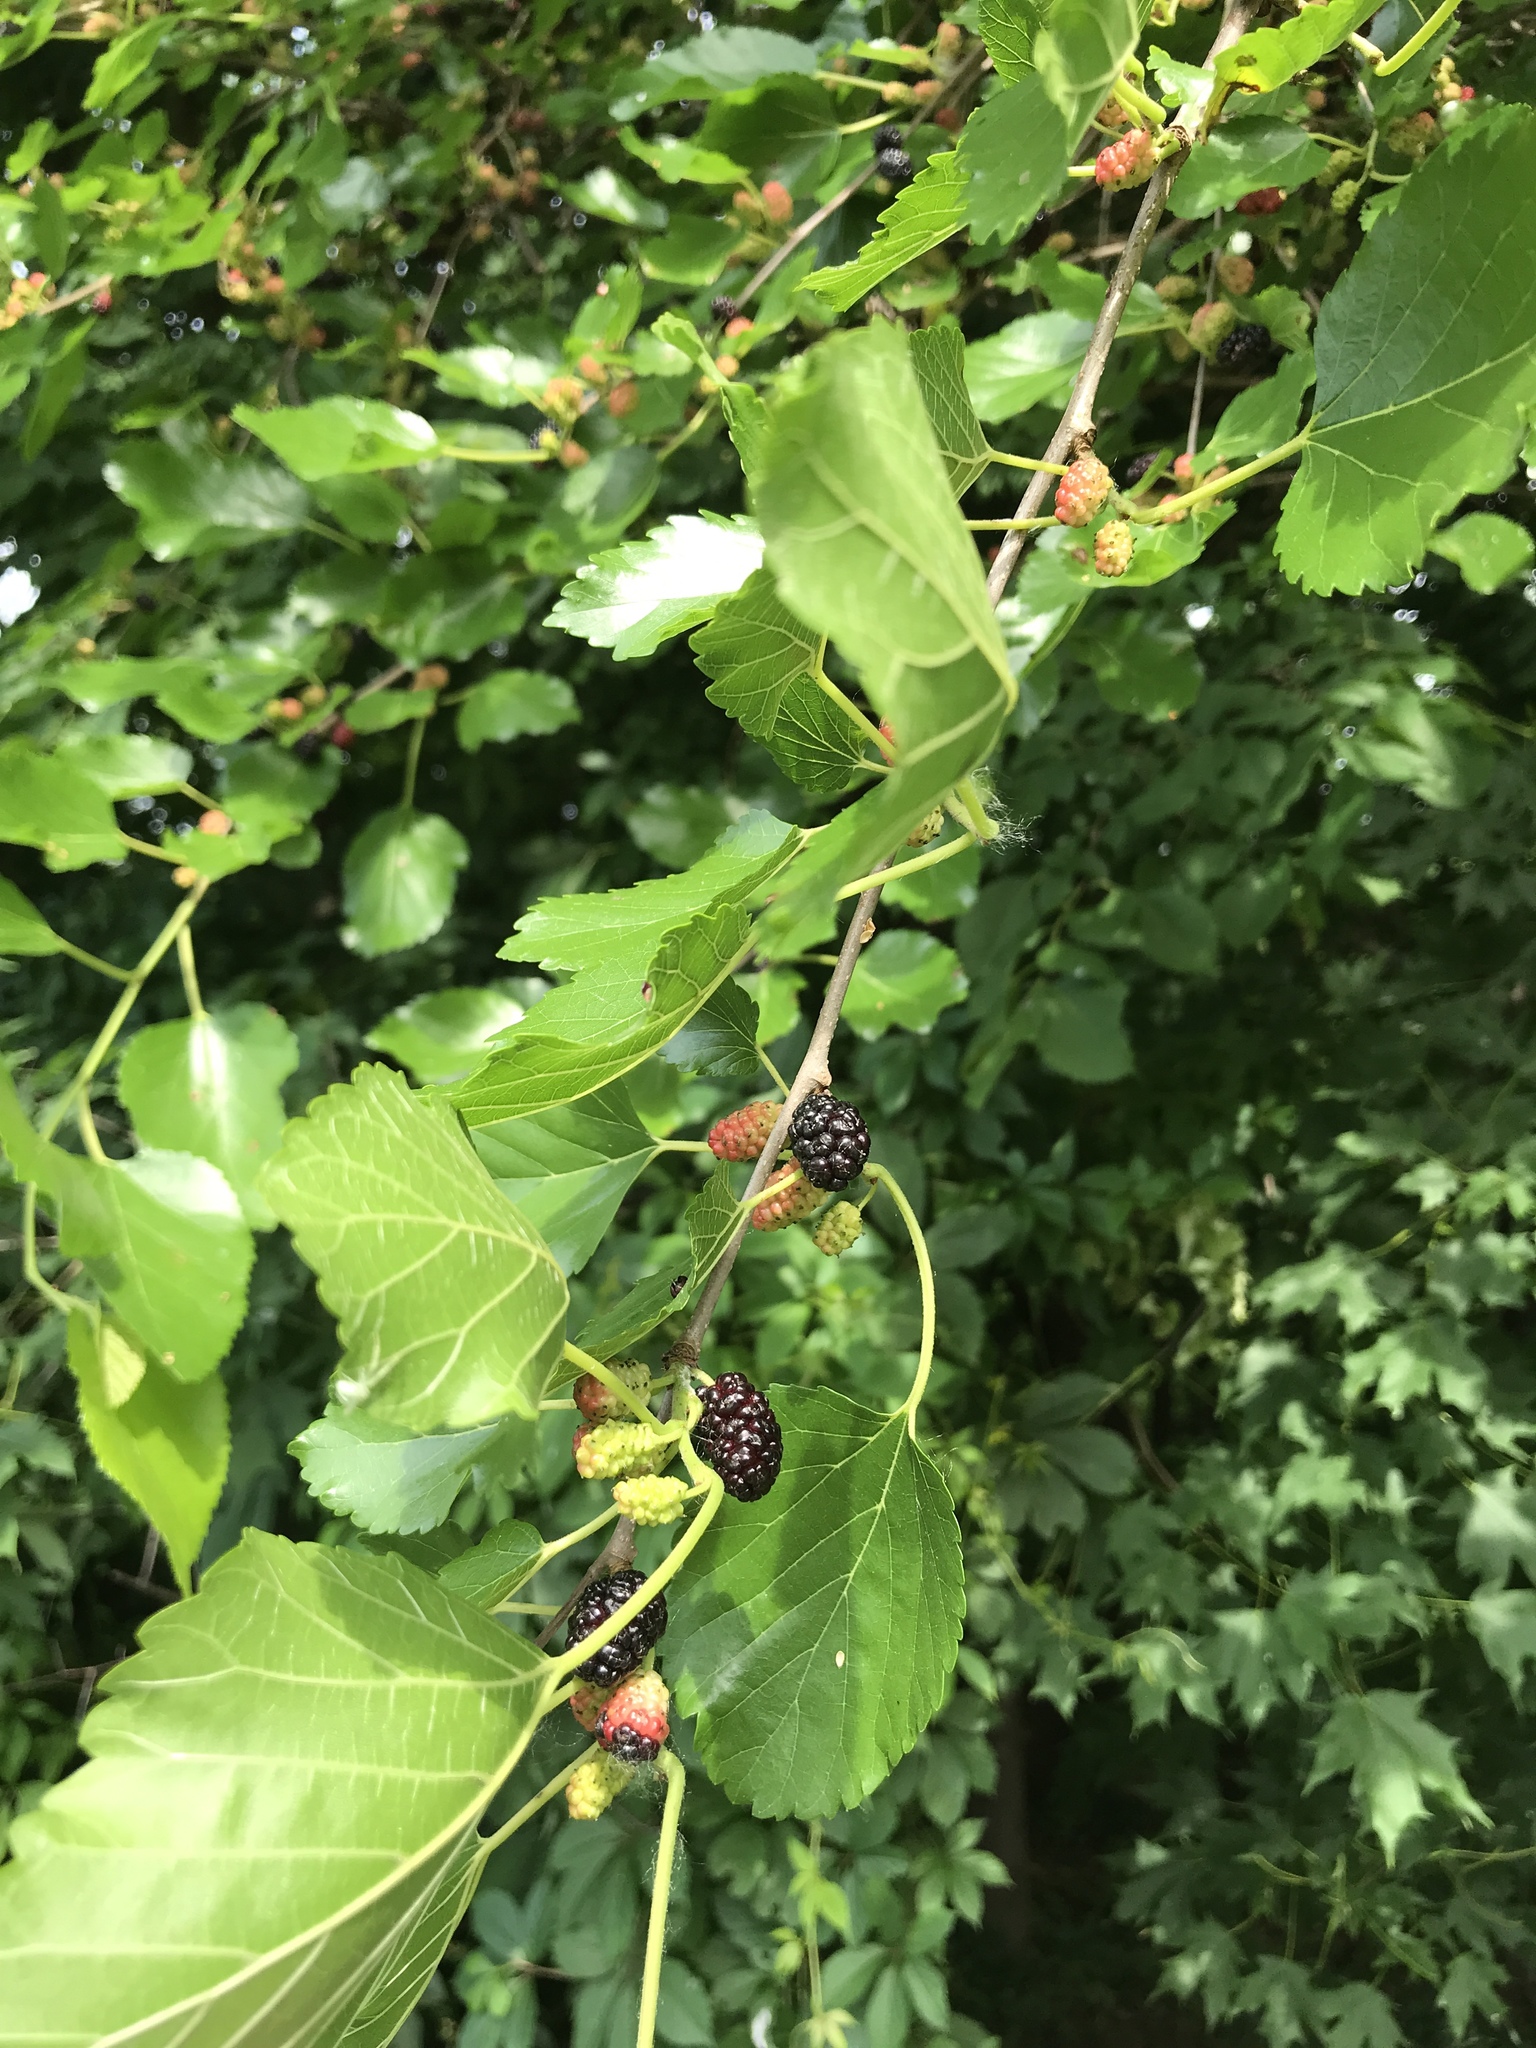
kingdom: Plantae
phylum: Tracheophyta
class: Magnoliopsida
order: Rosales
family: Moraceae
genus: Morus
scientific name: Morus alba
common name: White mulberry
